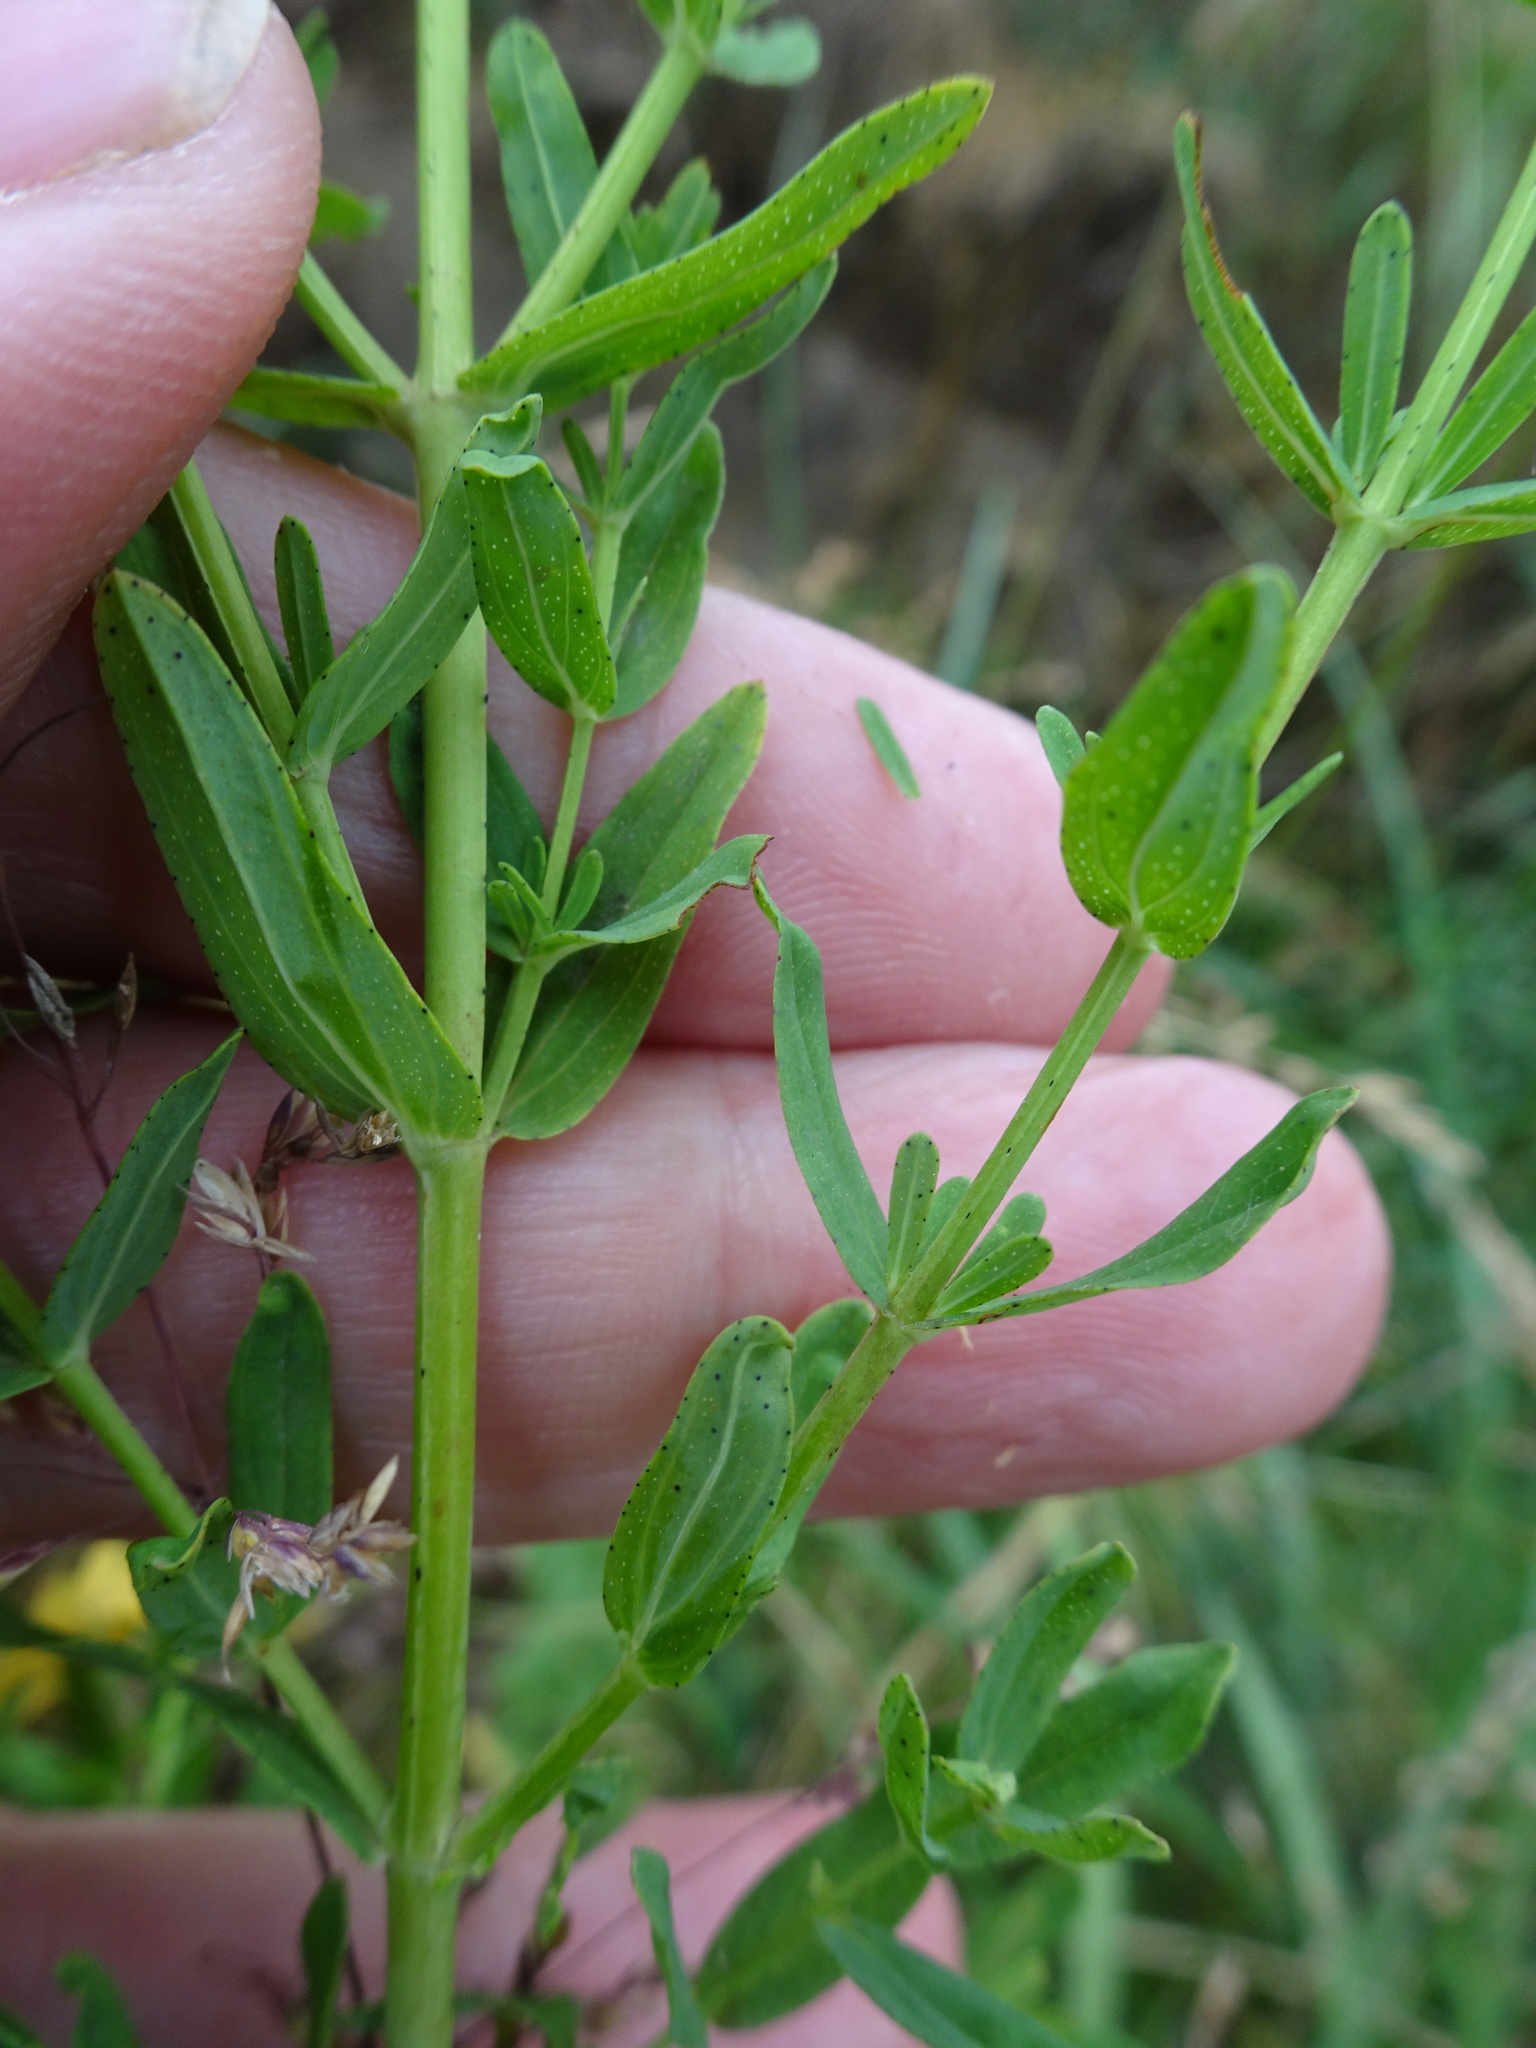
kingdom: Plantae
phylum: Tracheophyta
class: Magnoliopsida
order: Malpighiales
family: Hypericaceae
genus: Hypericum
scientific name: Hypericum perforatum
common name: Common st. johnswort
